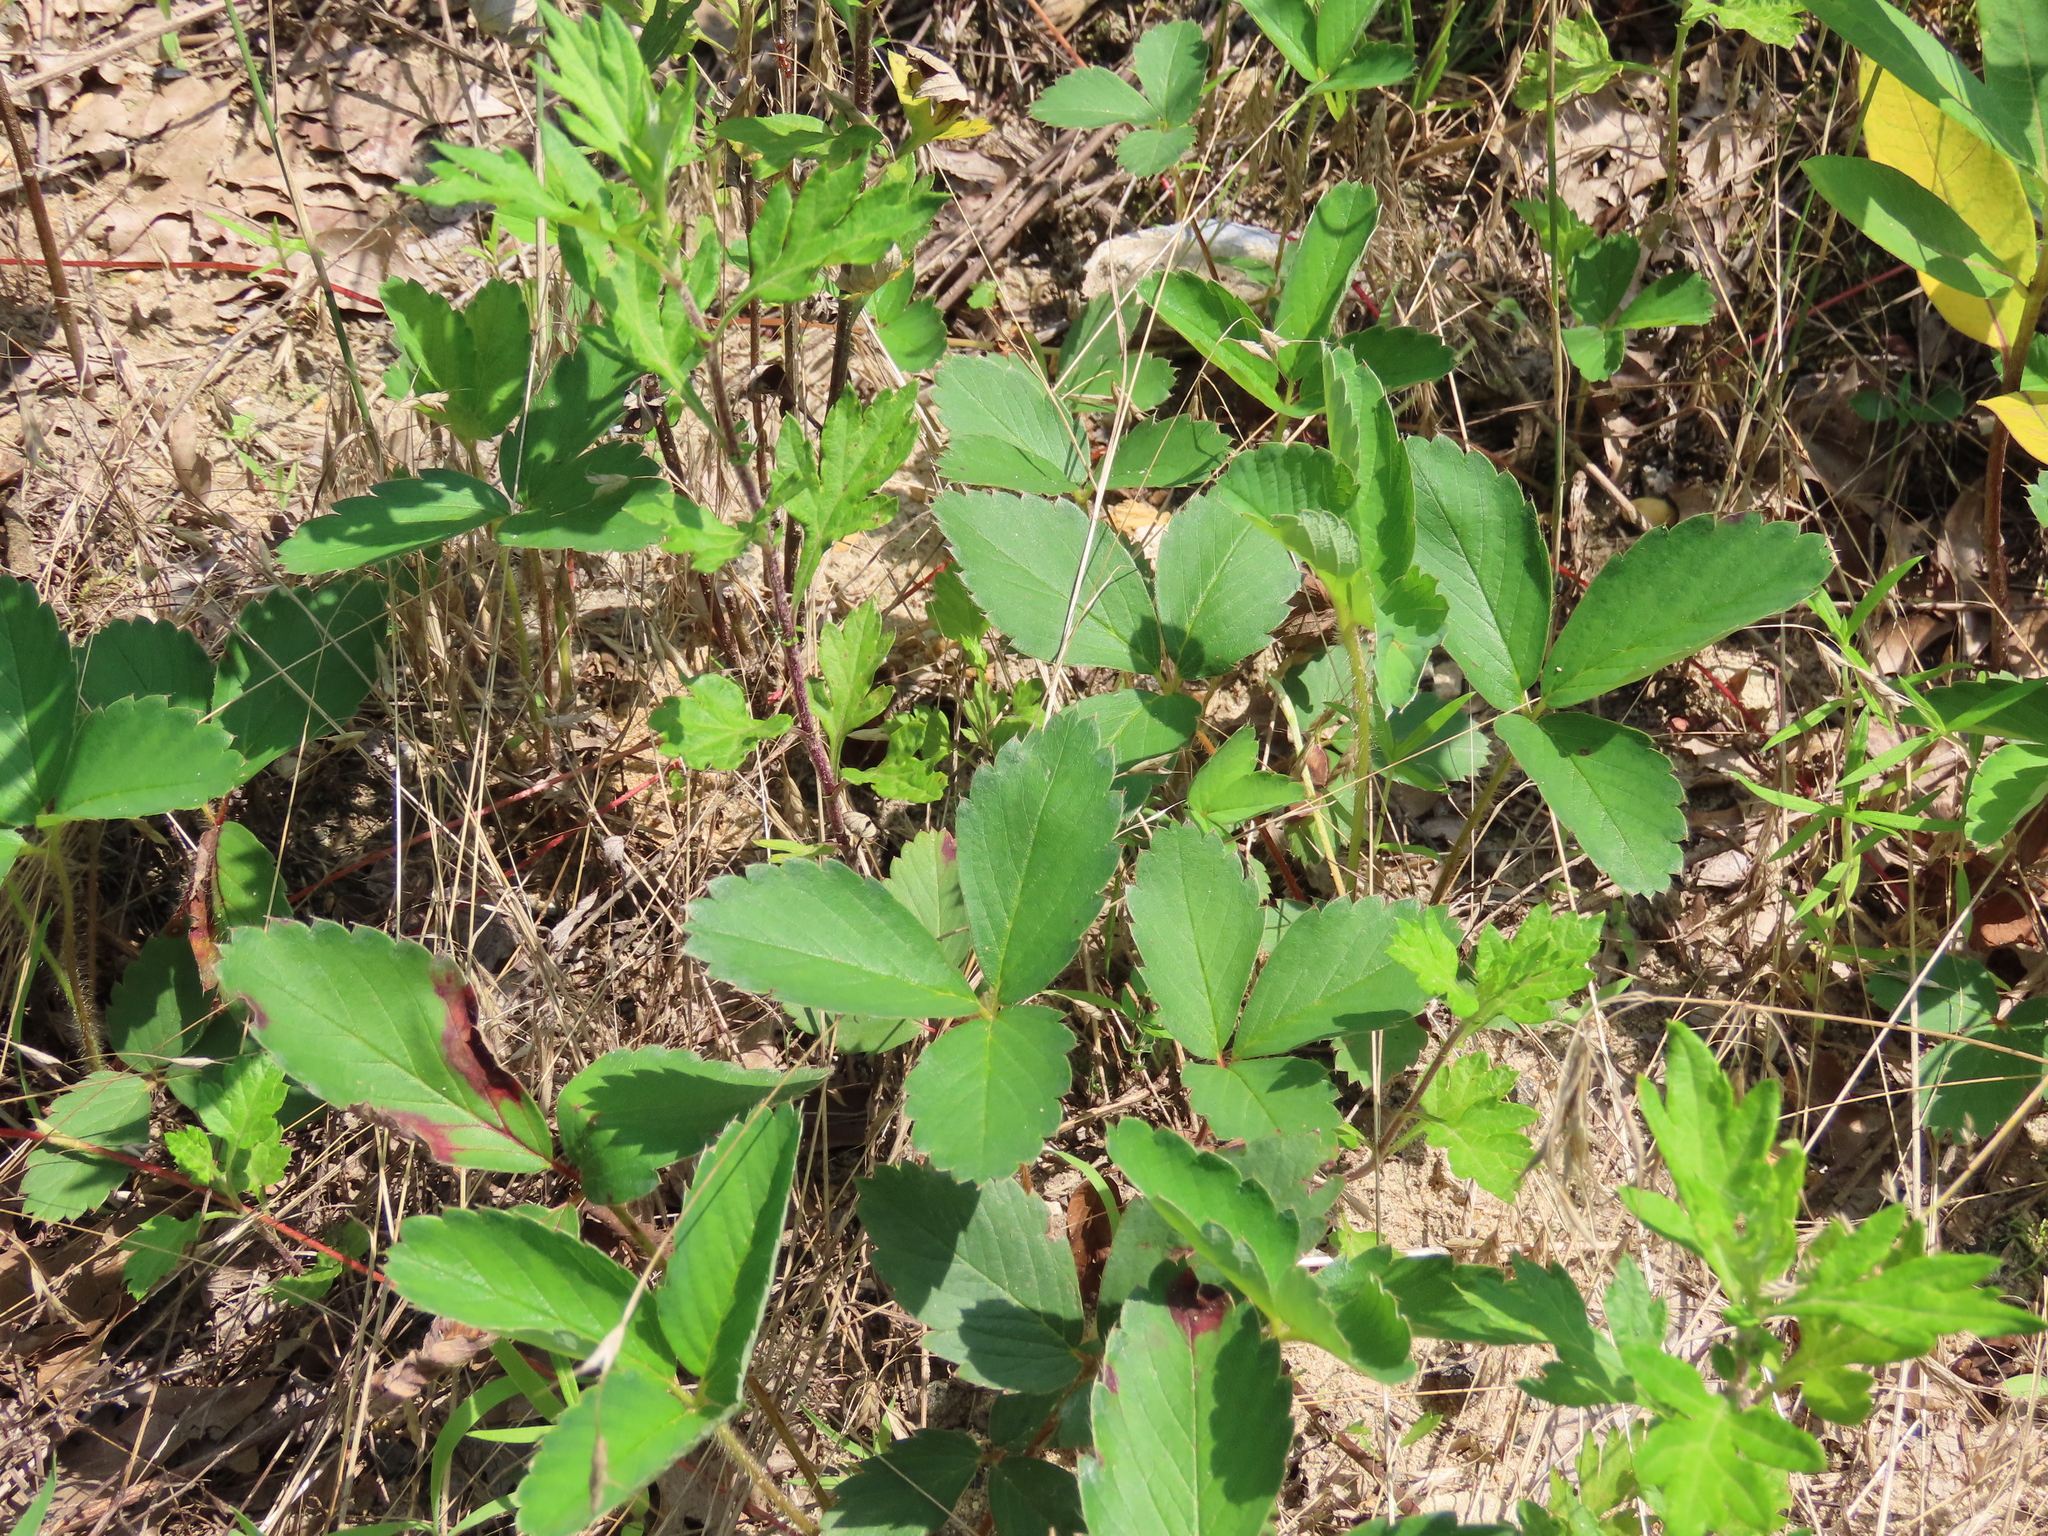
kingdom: Plantae
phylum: Tracheophyta
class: Magnoliopsida
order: Rosales
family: Rosaceae
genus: Fragaria
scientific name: Fragaria virginiana
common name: Thickleaved wild strawberry
